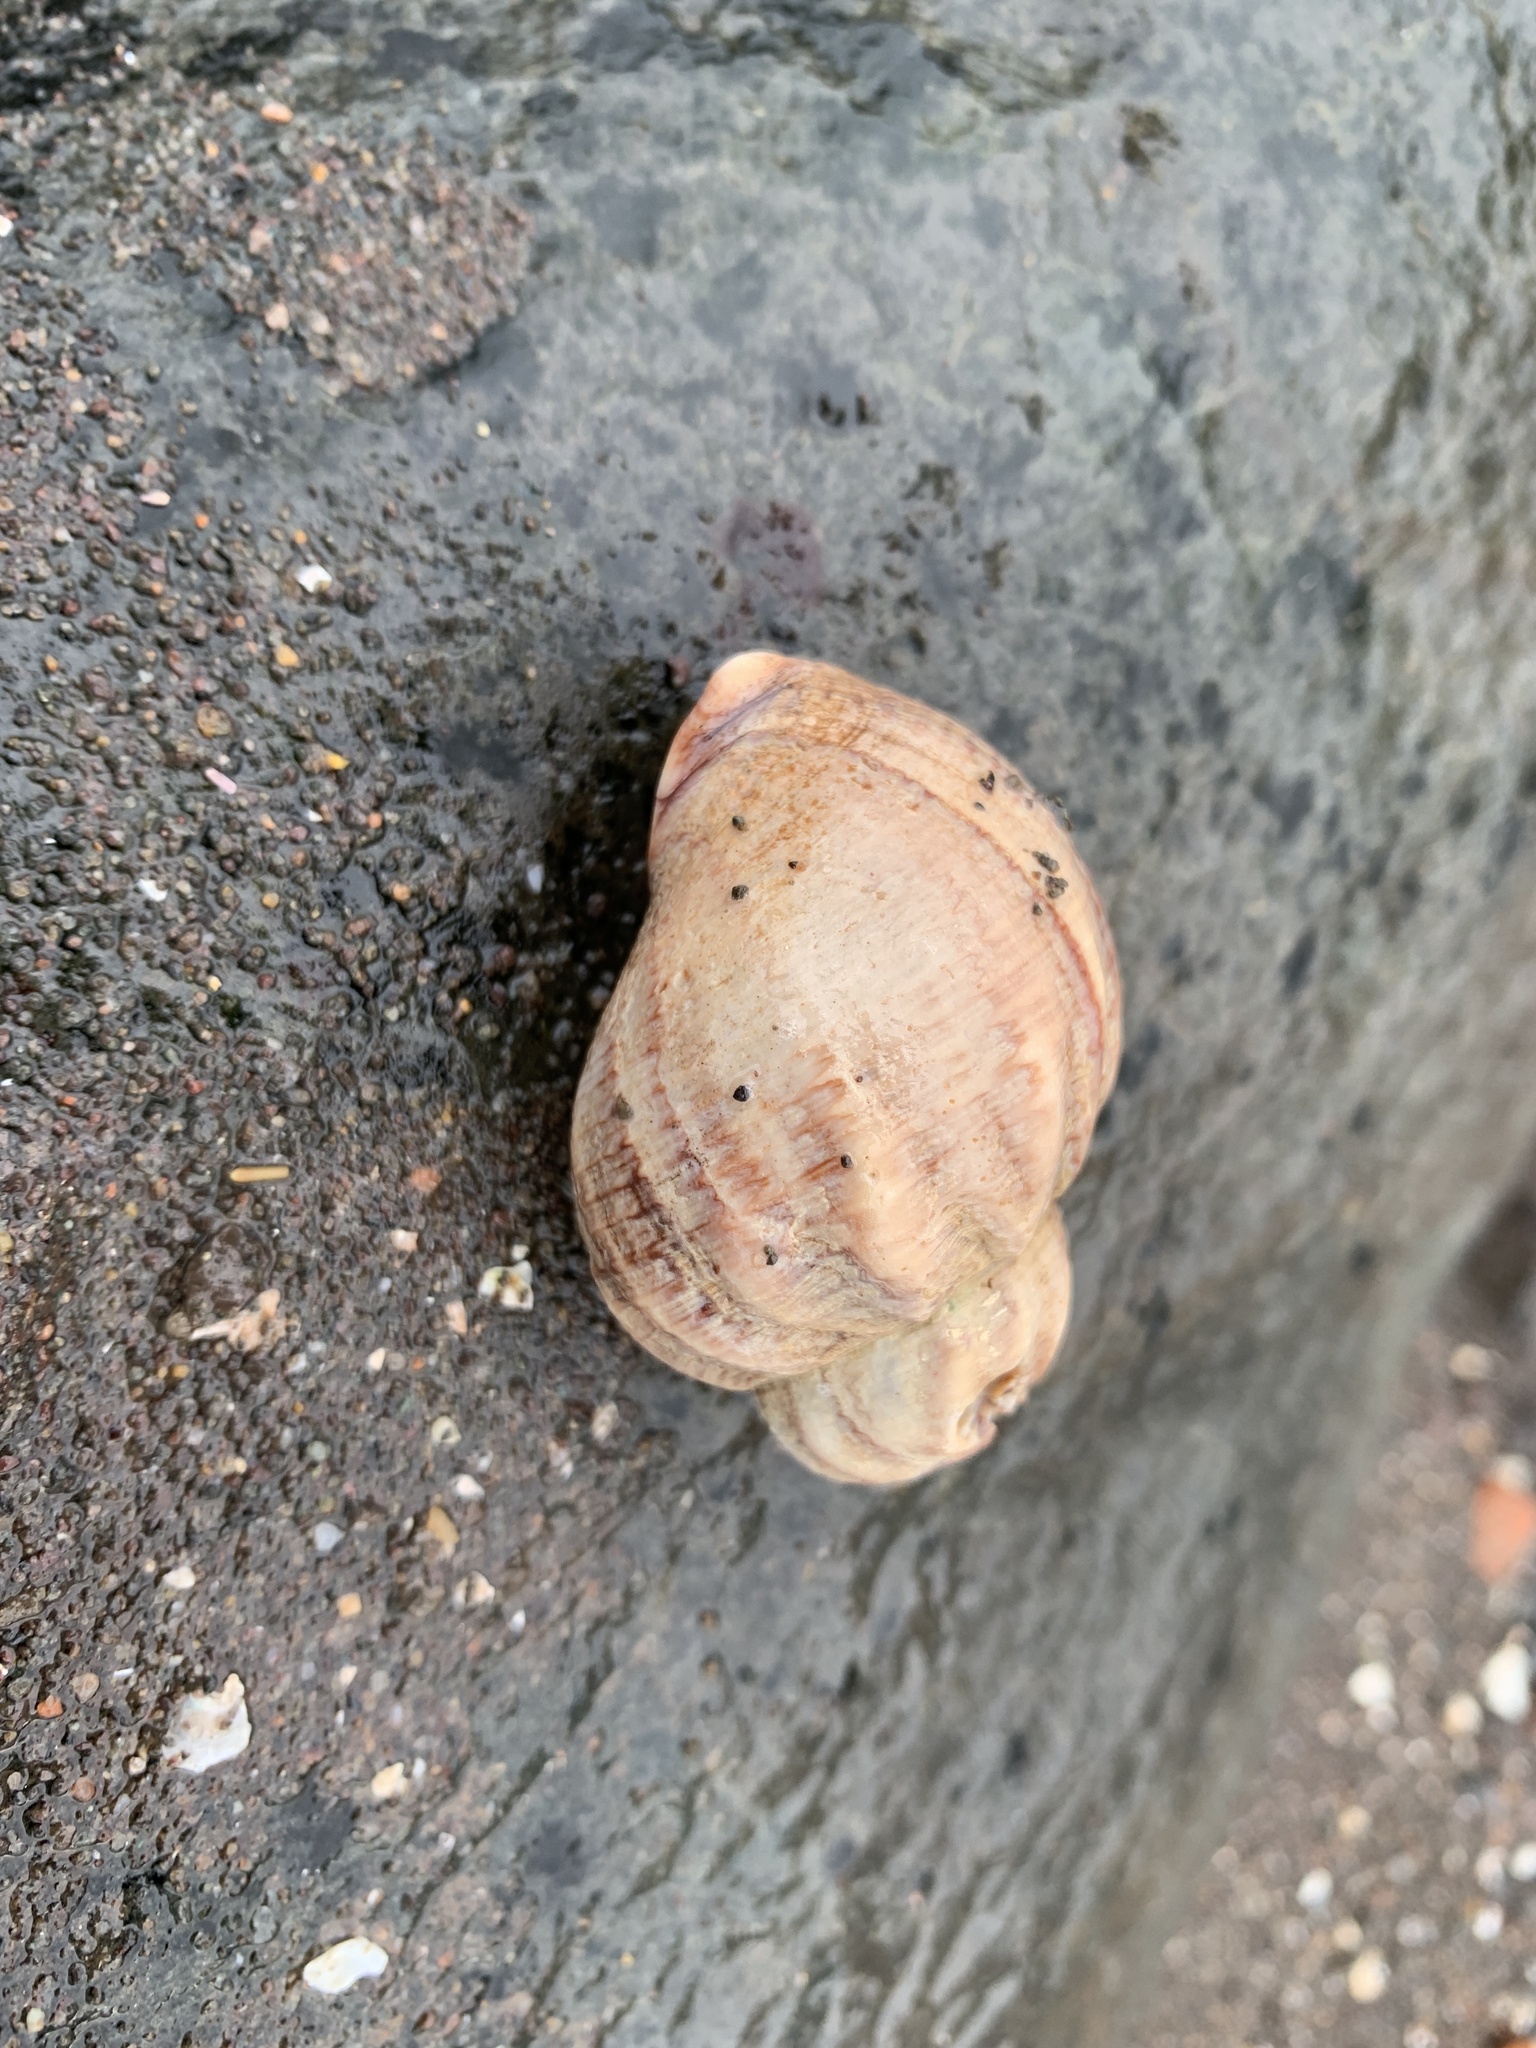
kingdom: Animalia
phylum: Mollusca
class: Gastropoda
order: Neogastropoda
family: Buccinidae
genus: Buccinum
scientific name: Buccinum undatum
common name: Common whelk
